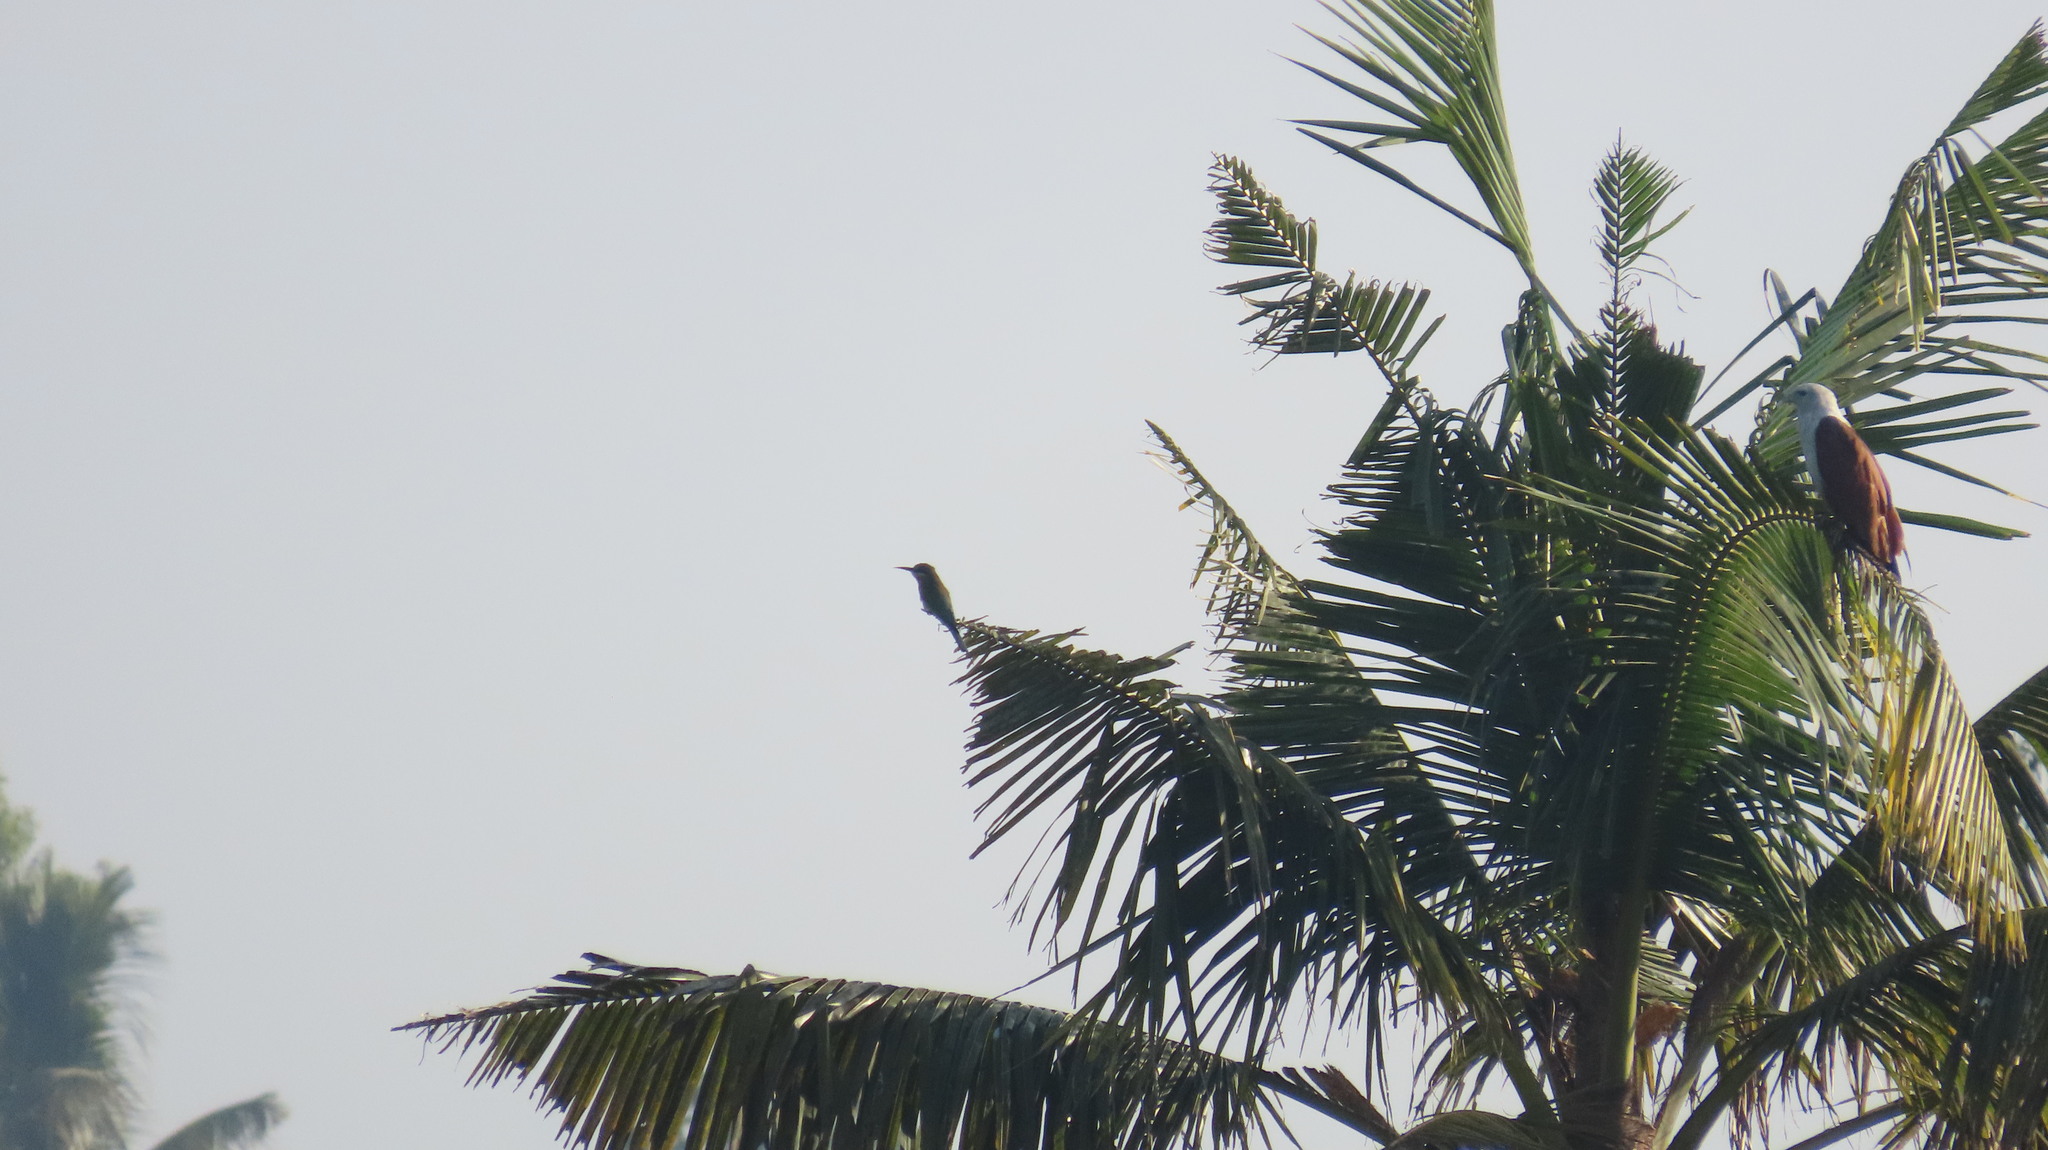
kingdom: Animalia
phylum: Chordata
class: Aves
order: Coraciiformes
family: Meropidae
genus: Merops
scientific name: Merops philippinus
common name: Blue-tailed bee-eater
